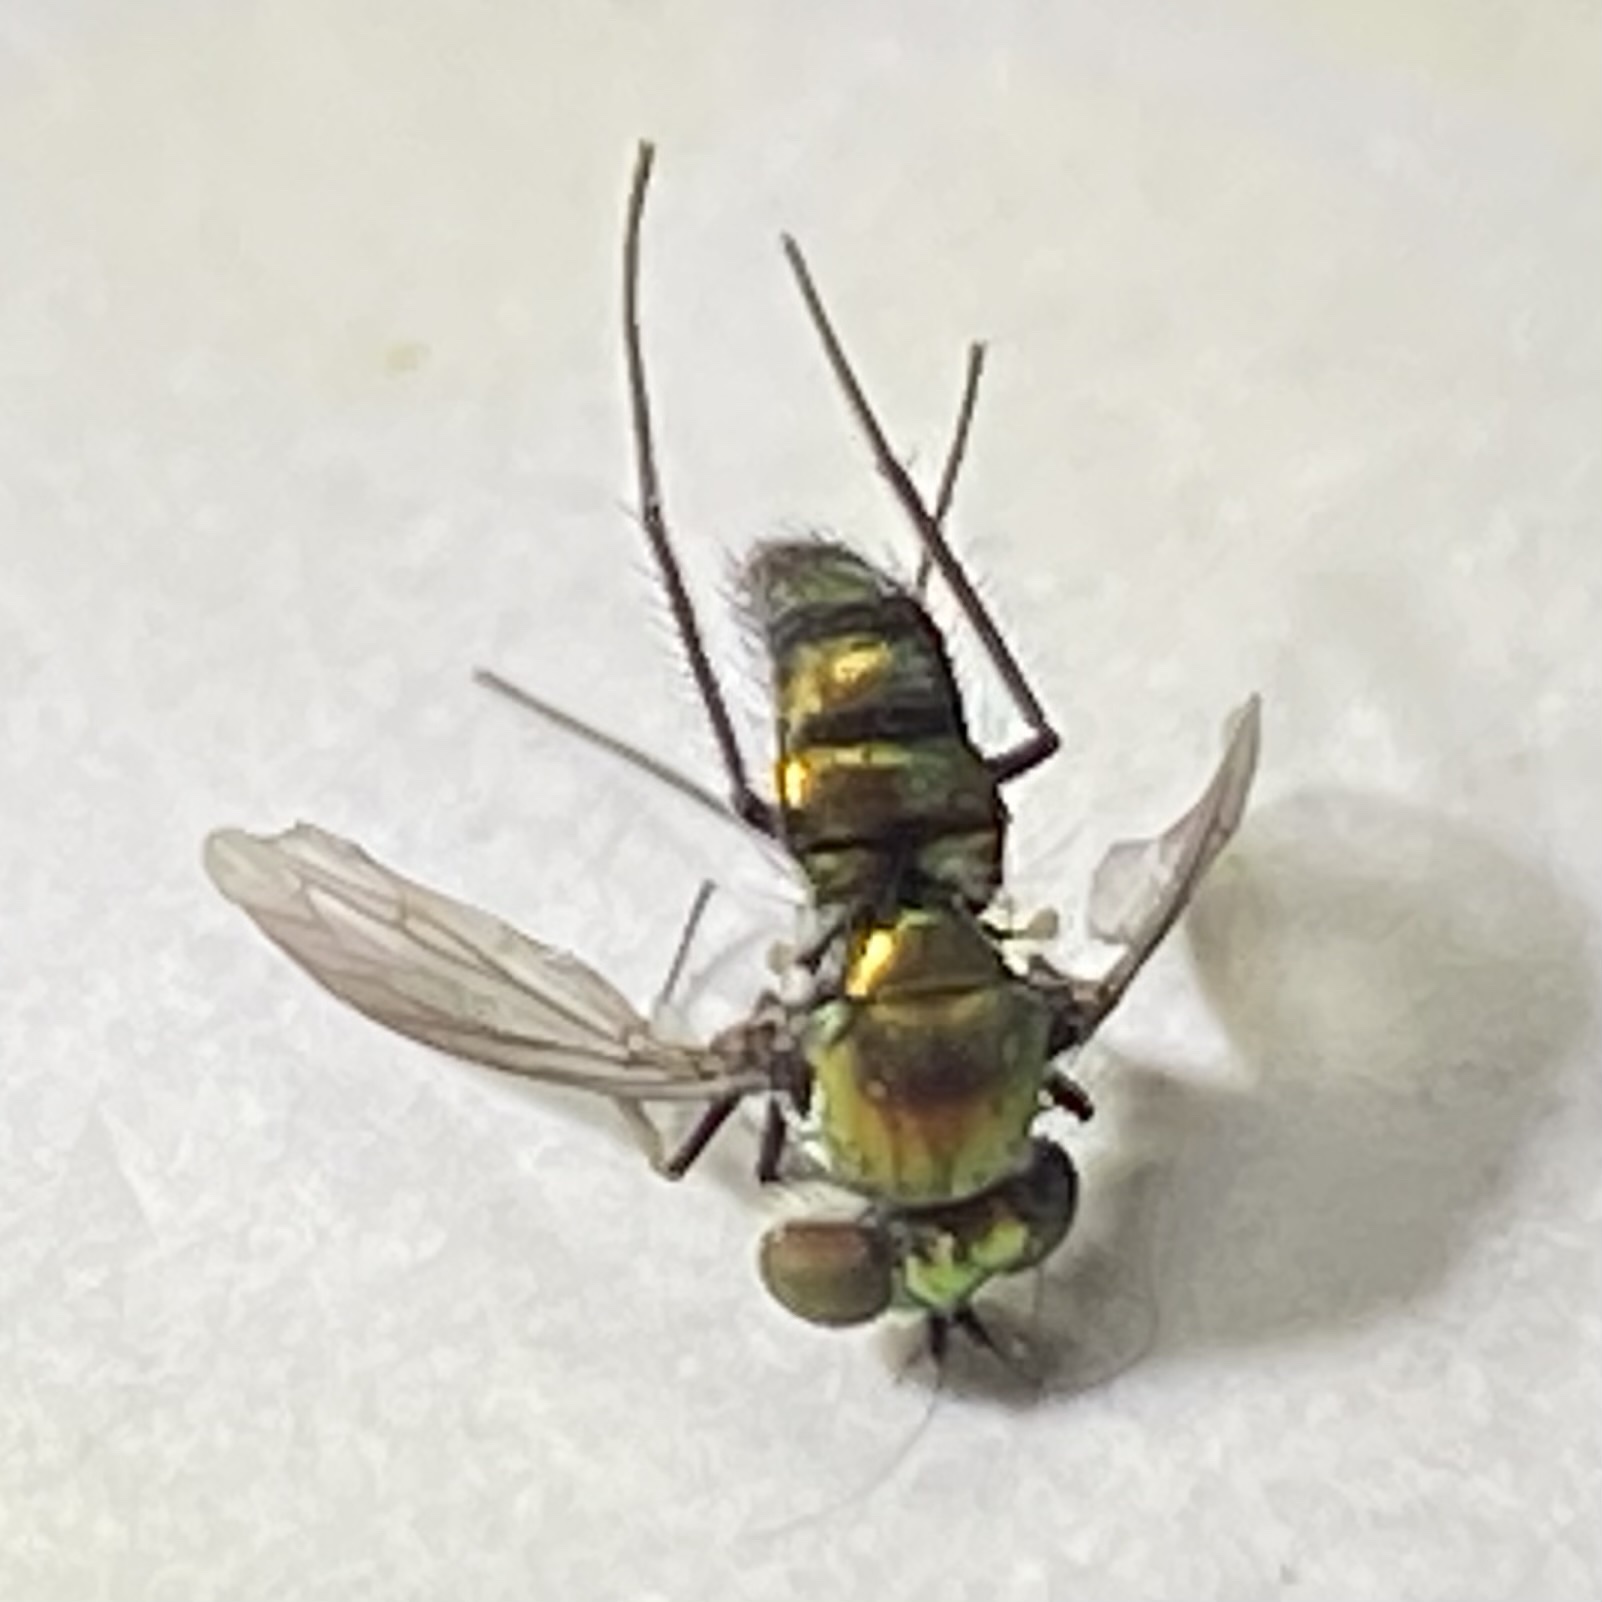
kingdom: Animalia
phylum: Arthropoda
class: Insecta
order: Diptera
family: Dolichopodidae
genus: Condylostylus
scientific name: Condylostylus longicornis
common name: Long-legged fly
